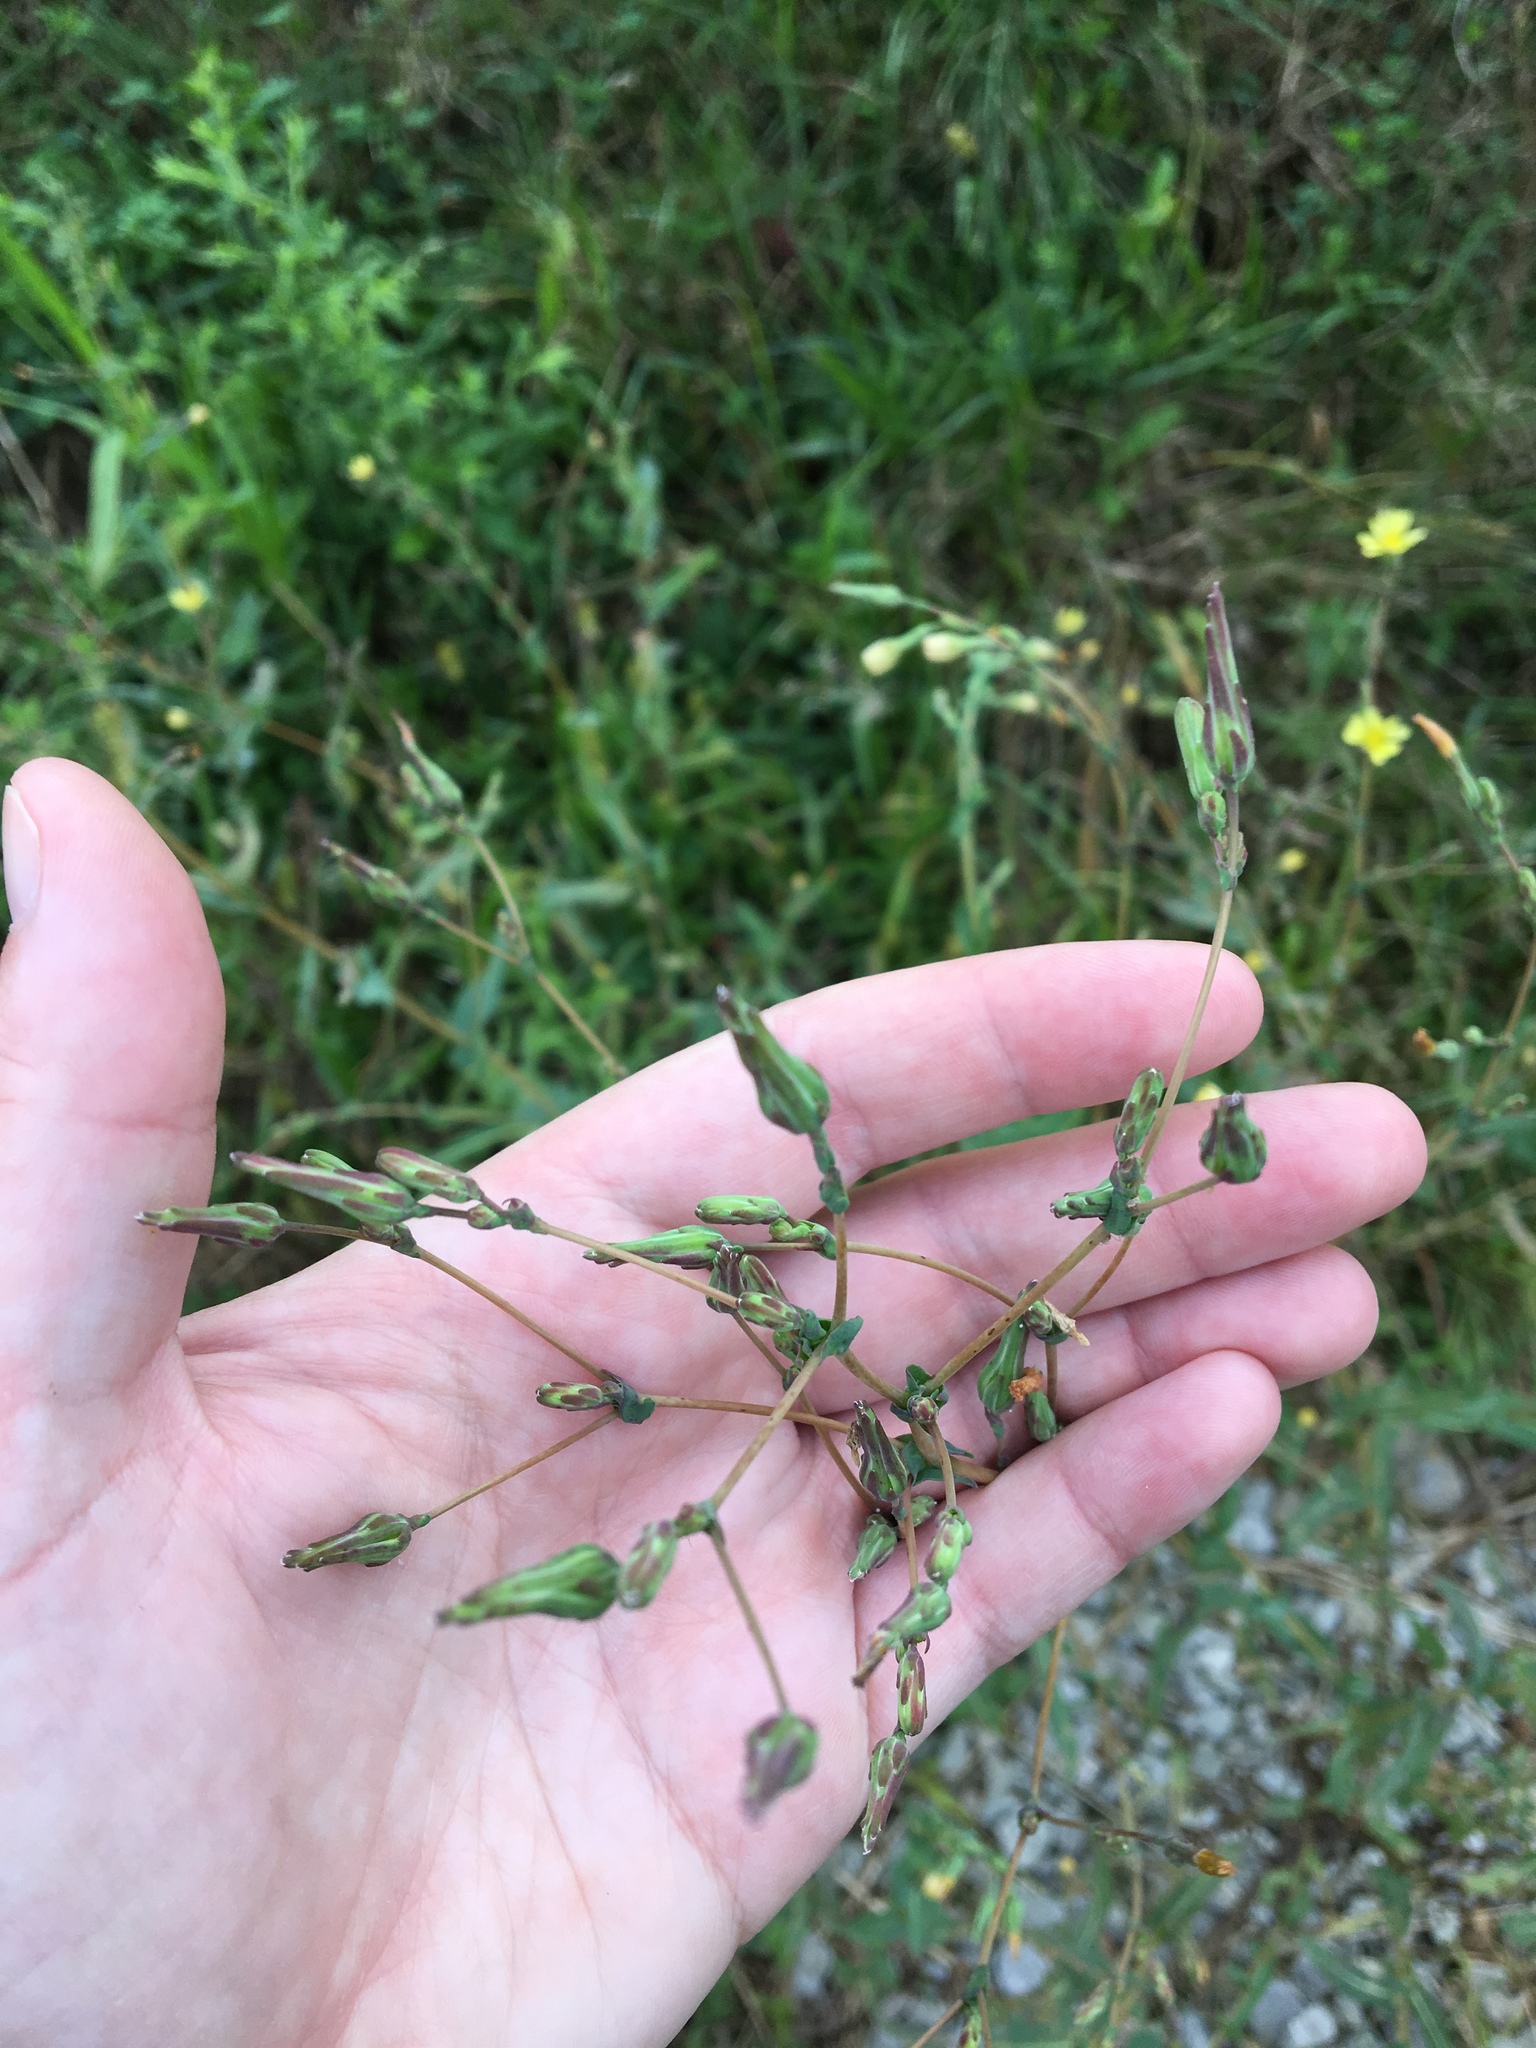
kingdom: Plantae
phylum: Tracheophyta
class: Magnoliopsida
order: Asterales
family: Asteraceae
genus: Lactuca
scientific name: Lactuca serriola
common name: Prickly lettuce
